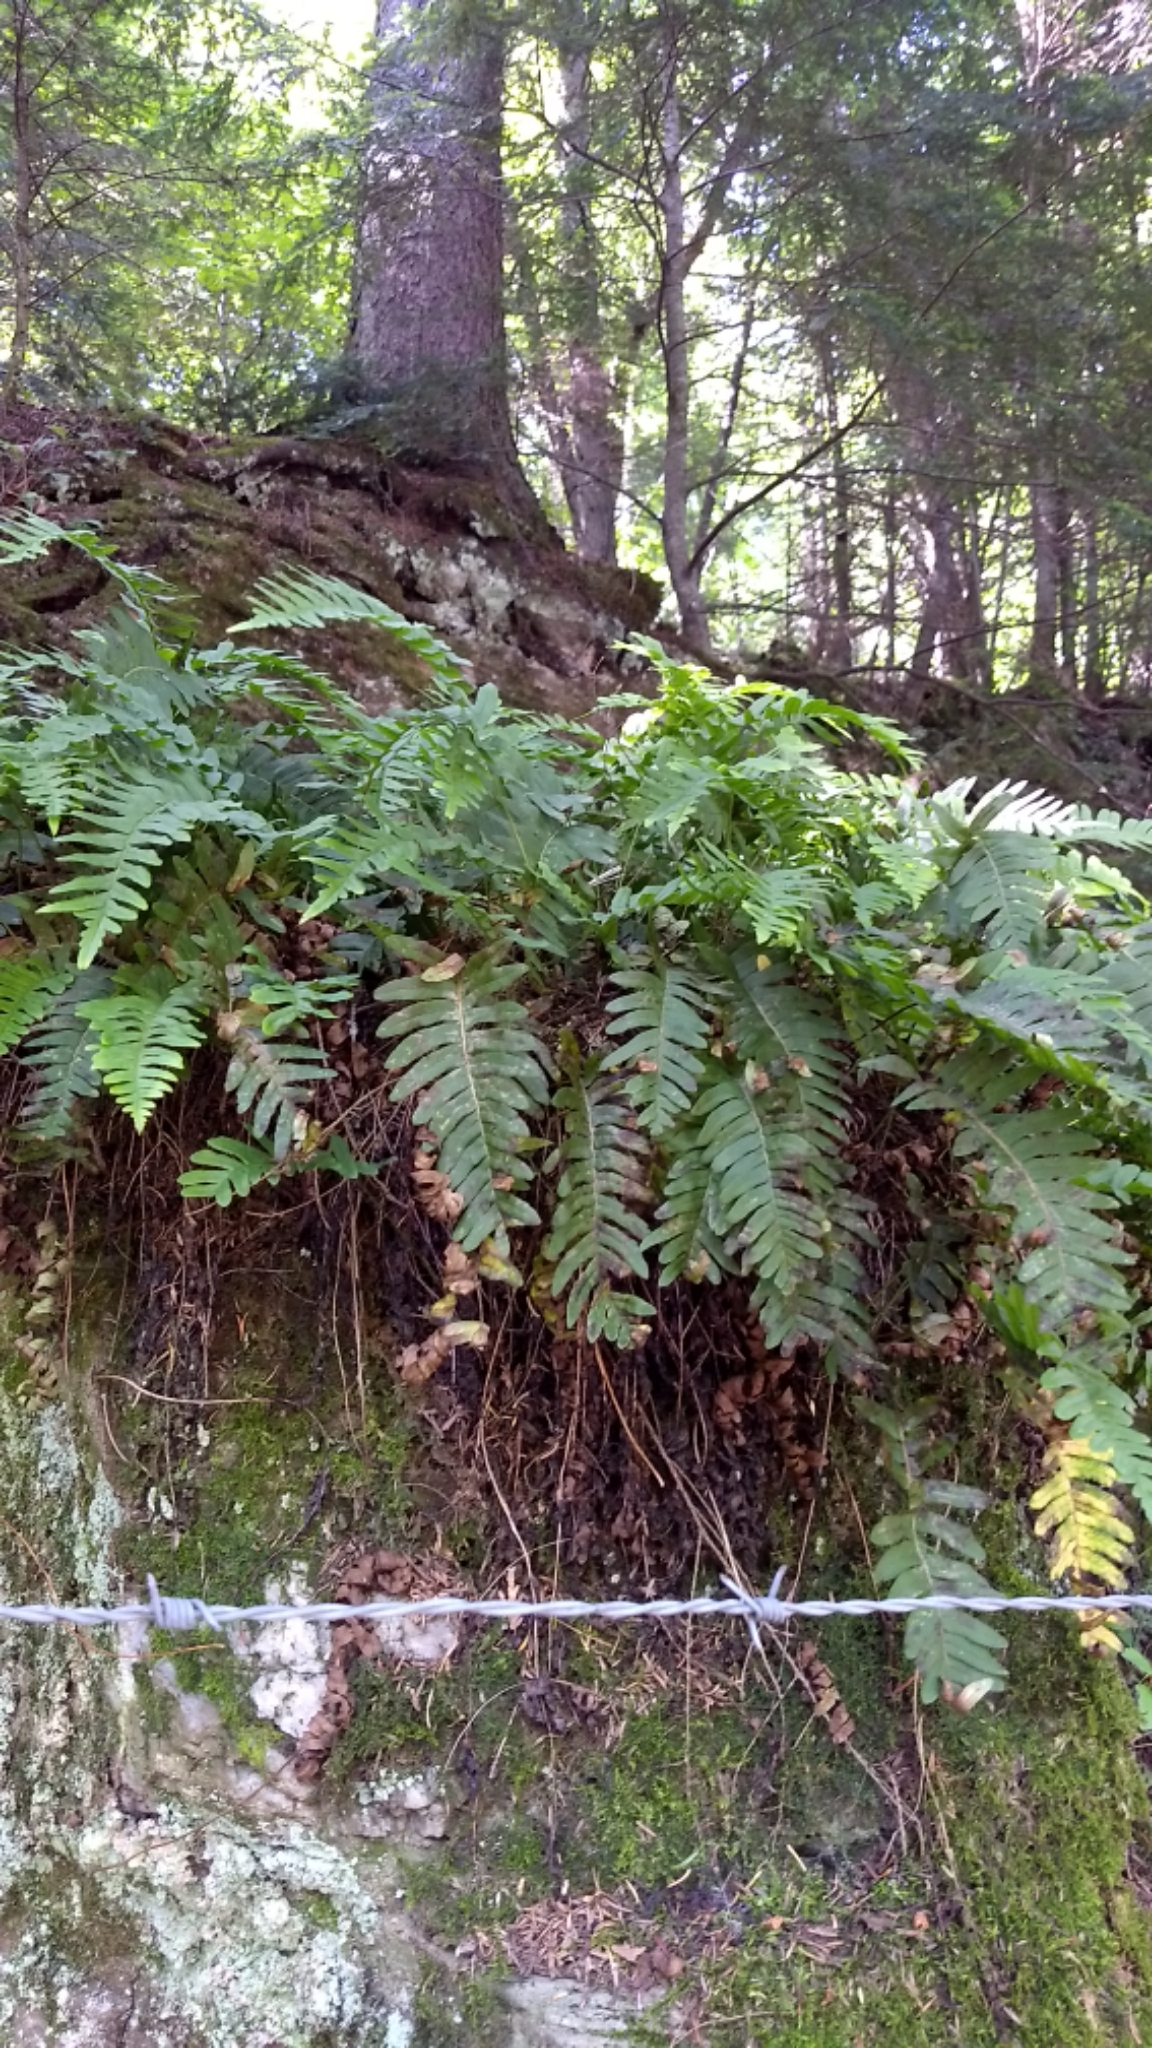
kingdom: Plantae
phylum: Tracheophyta
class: Polypodiopsida
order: Polypodiales
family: Polypodiaceae
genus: Polypodium
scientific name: Polypodium virginianum
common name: American wall fern
